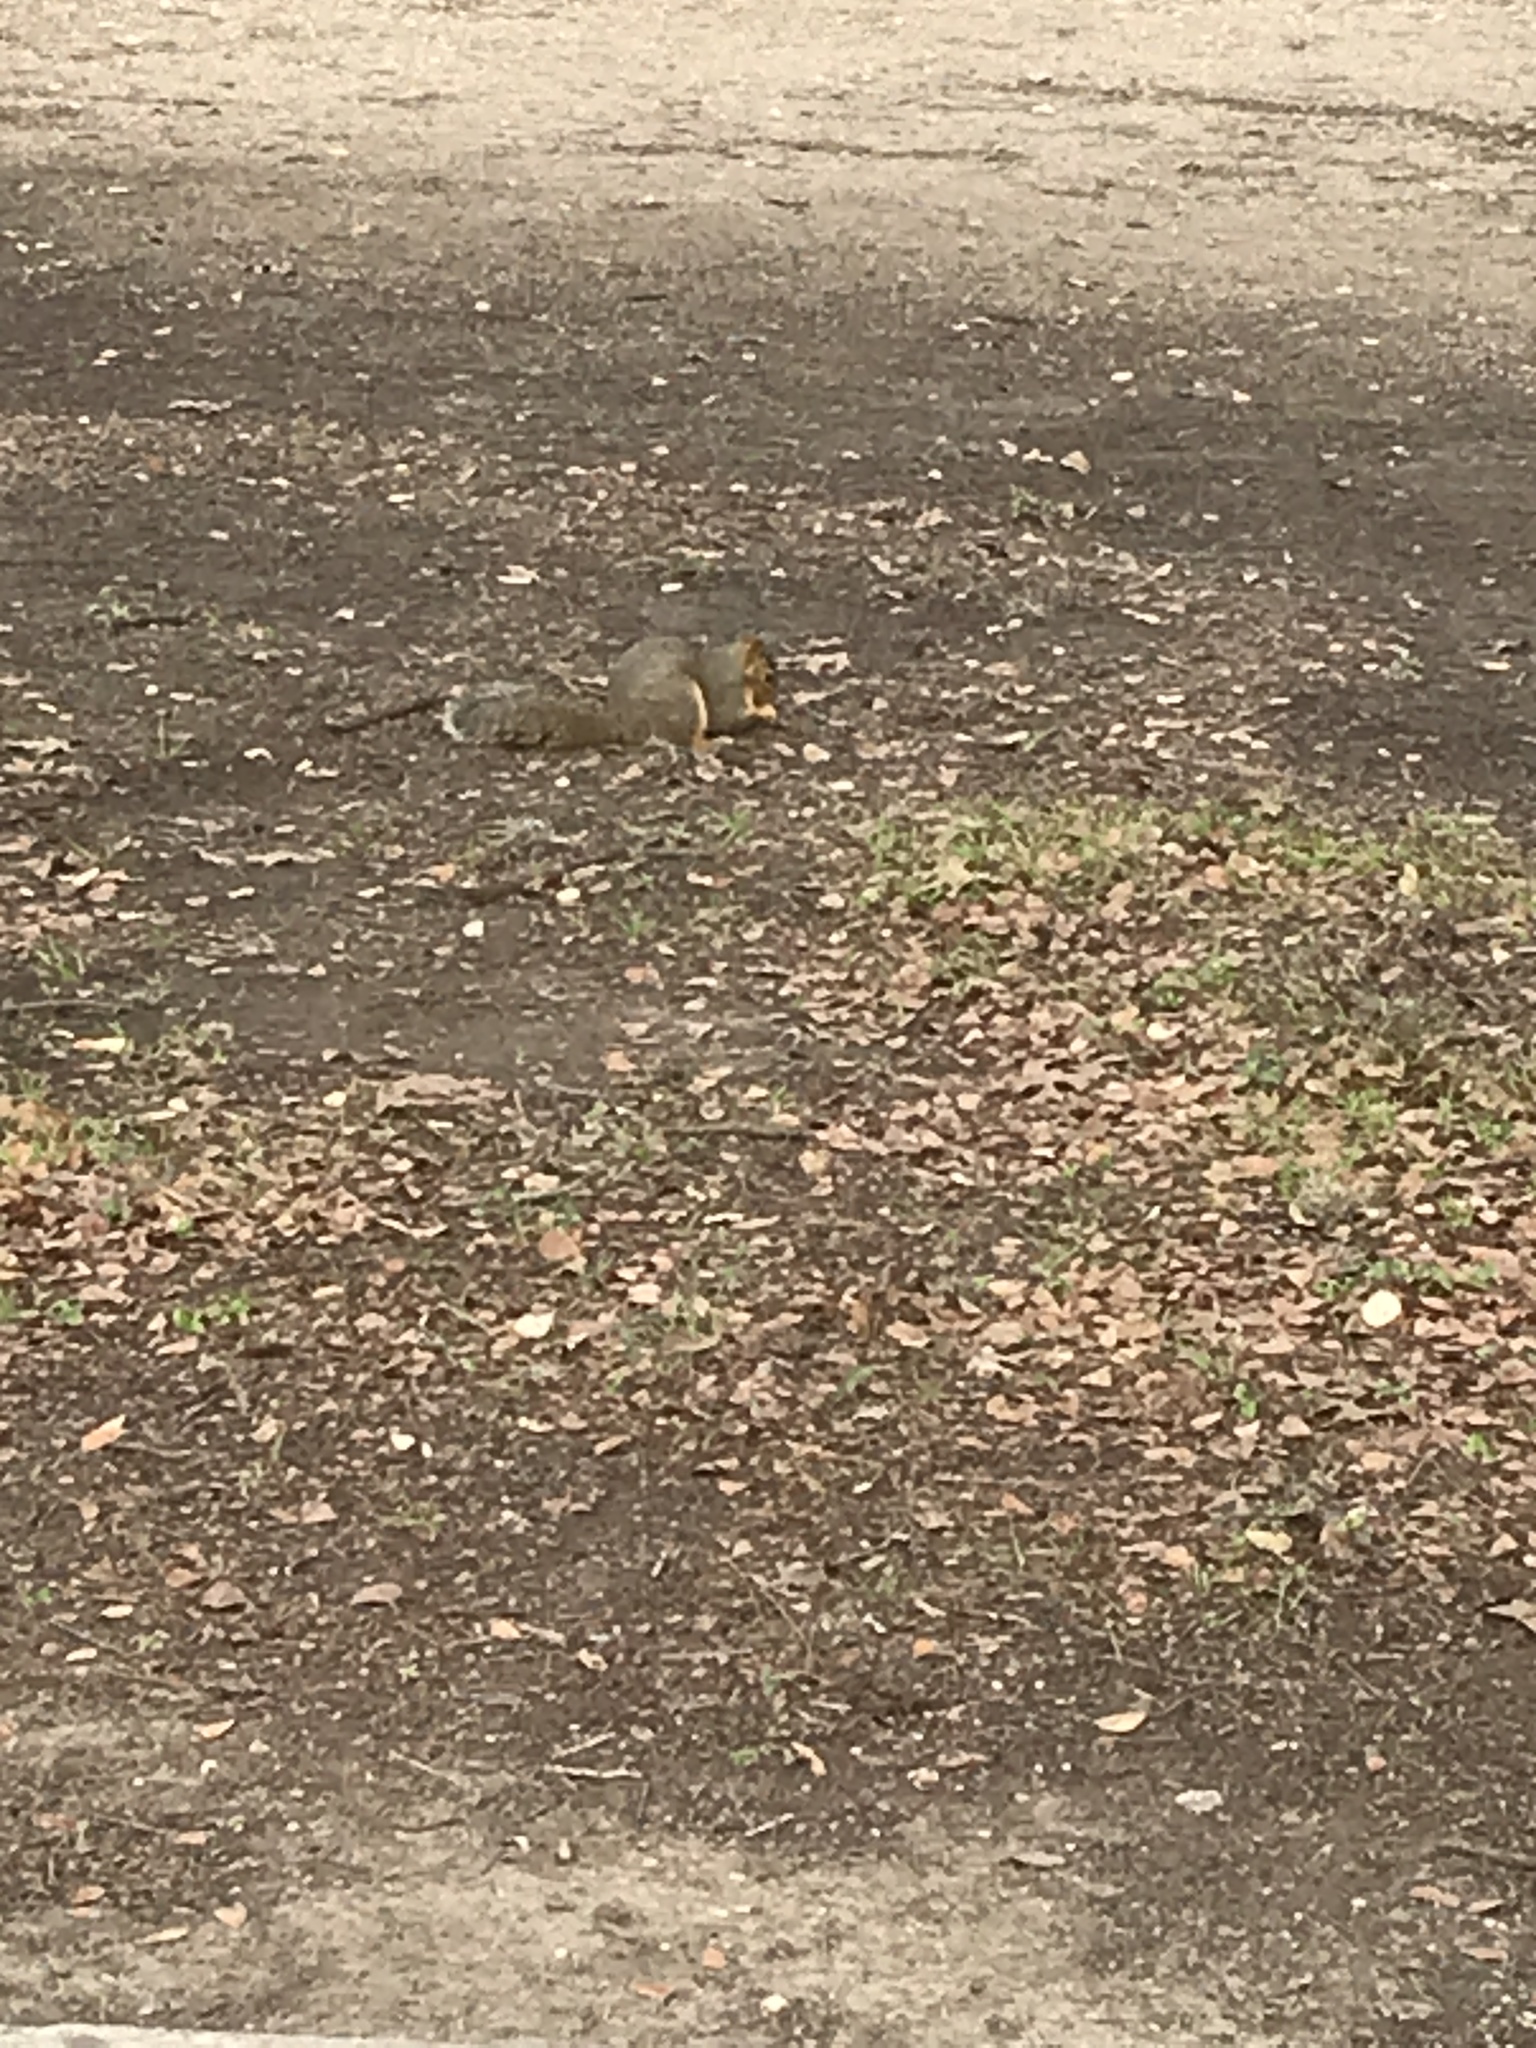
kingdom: Animalia
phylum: Chordata
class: Mammalia
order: Rodentia
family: Sciuridae
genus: Sciurus
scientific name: Sciurus niger
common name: Fox squirrel
